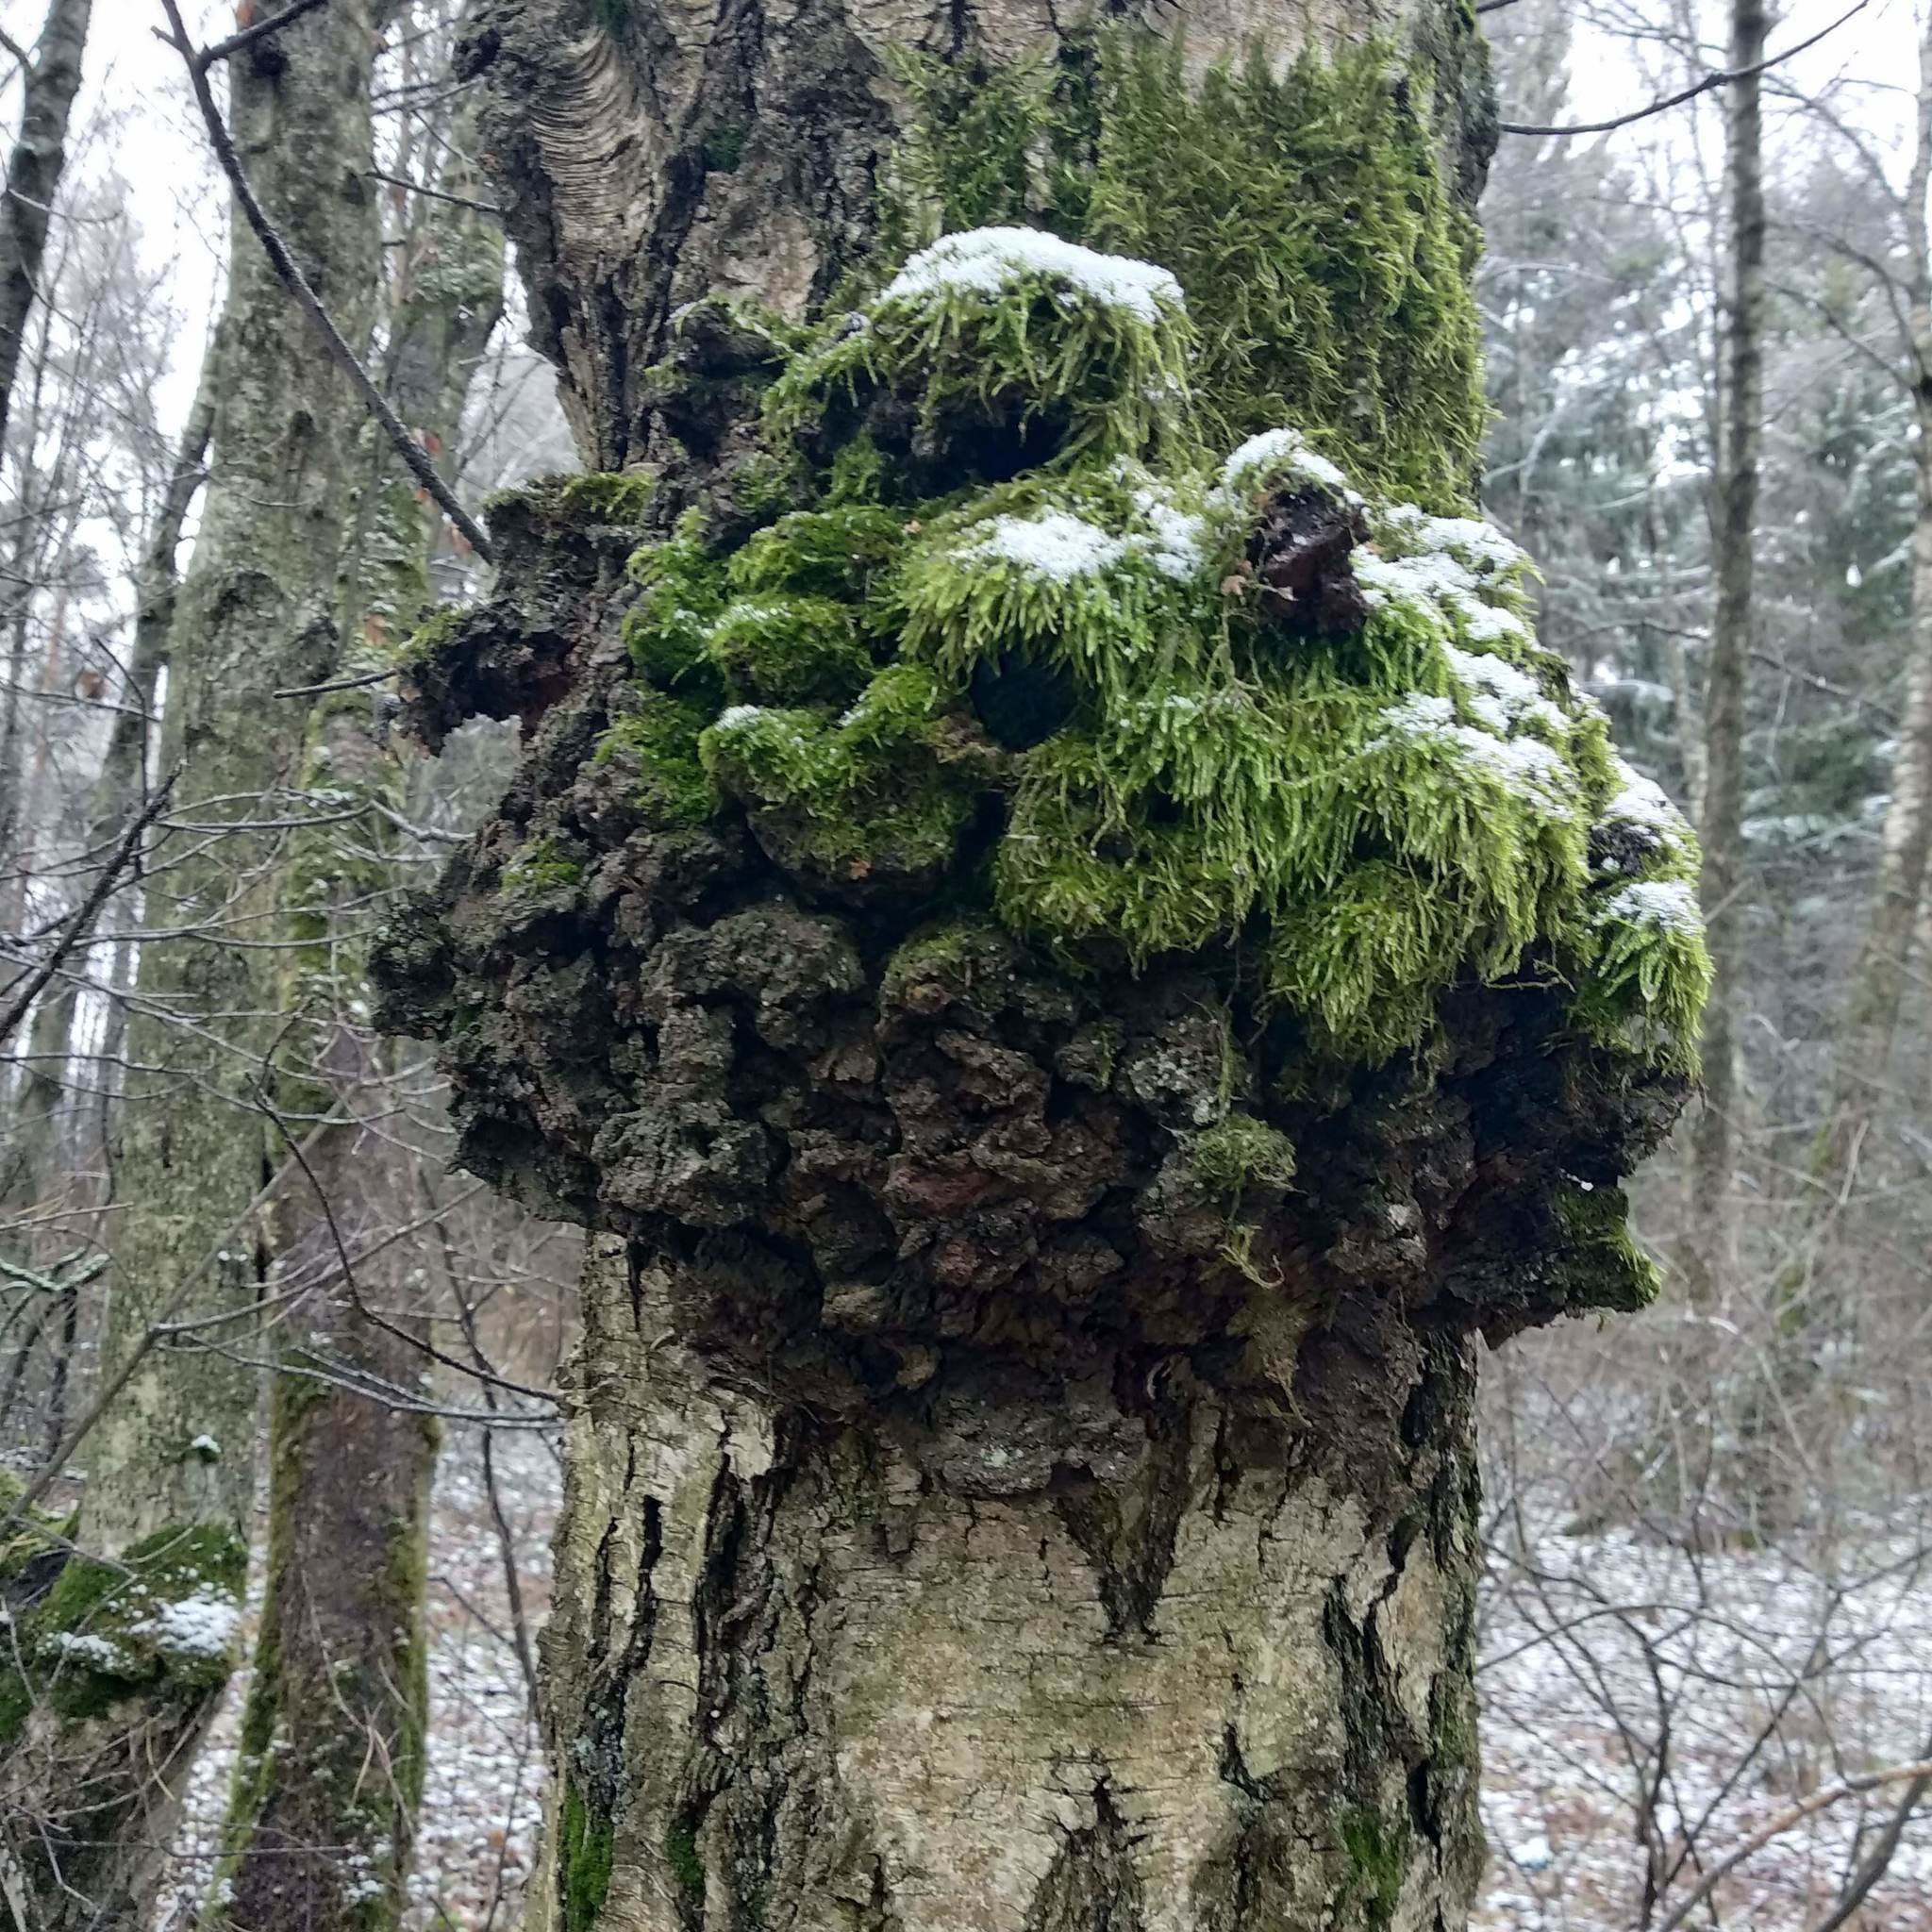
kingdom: Bacteria
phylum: Proteobacteria
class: Alphaproteobacteria
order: Rhizobiales
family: Rhizobiaceae
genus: Rhizobium
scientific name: Rhizobium Agrobacterium radiobacter
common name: Bacterial crown gall
